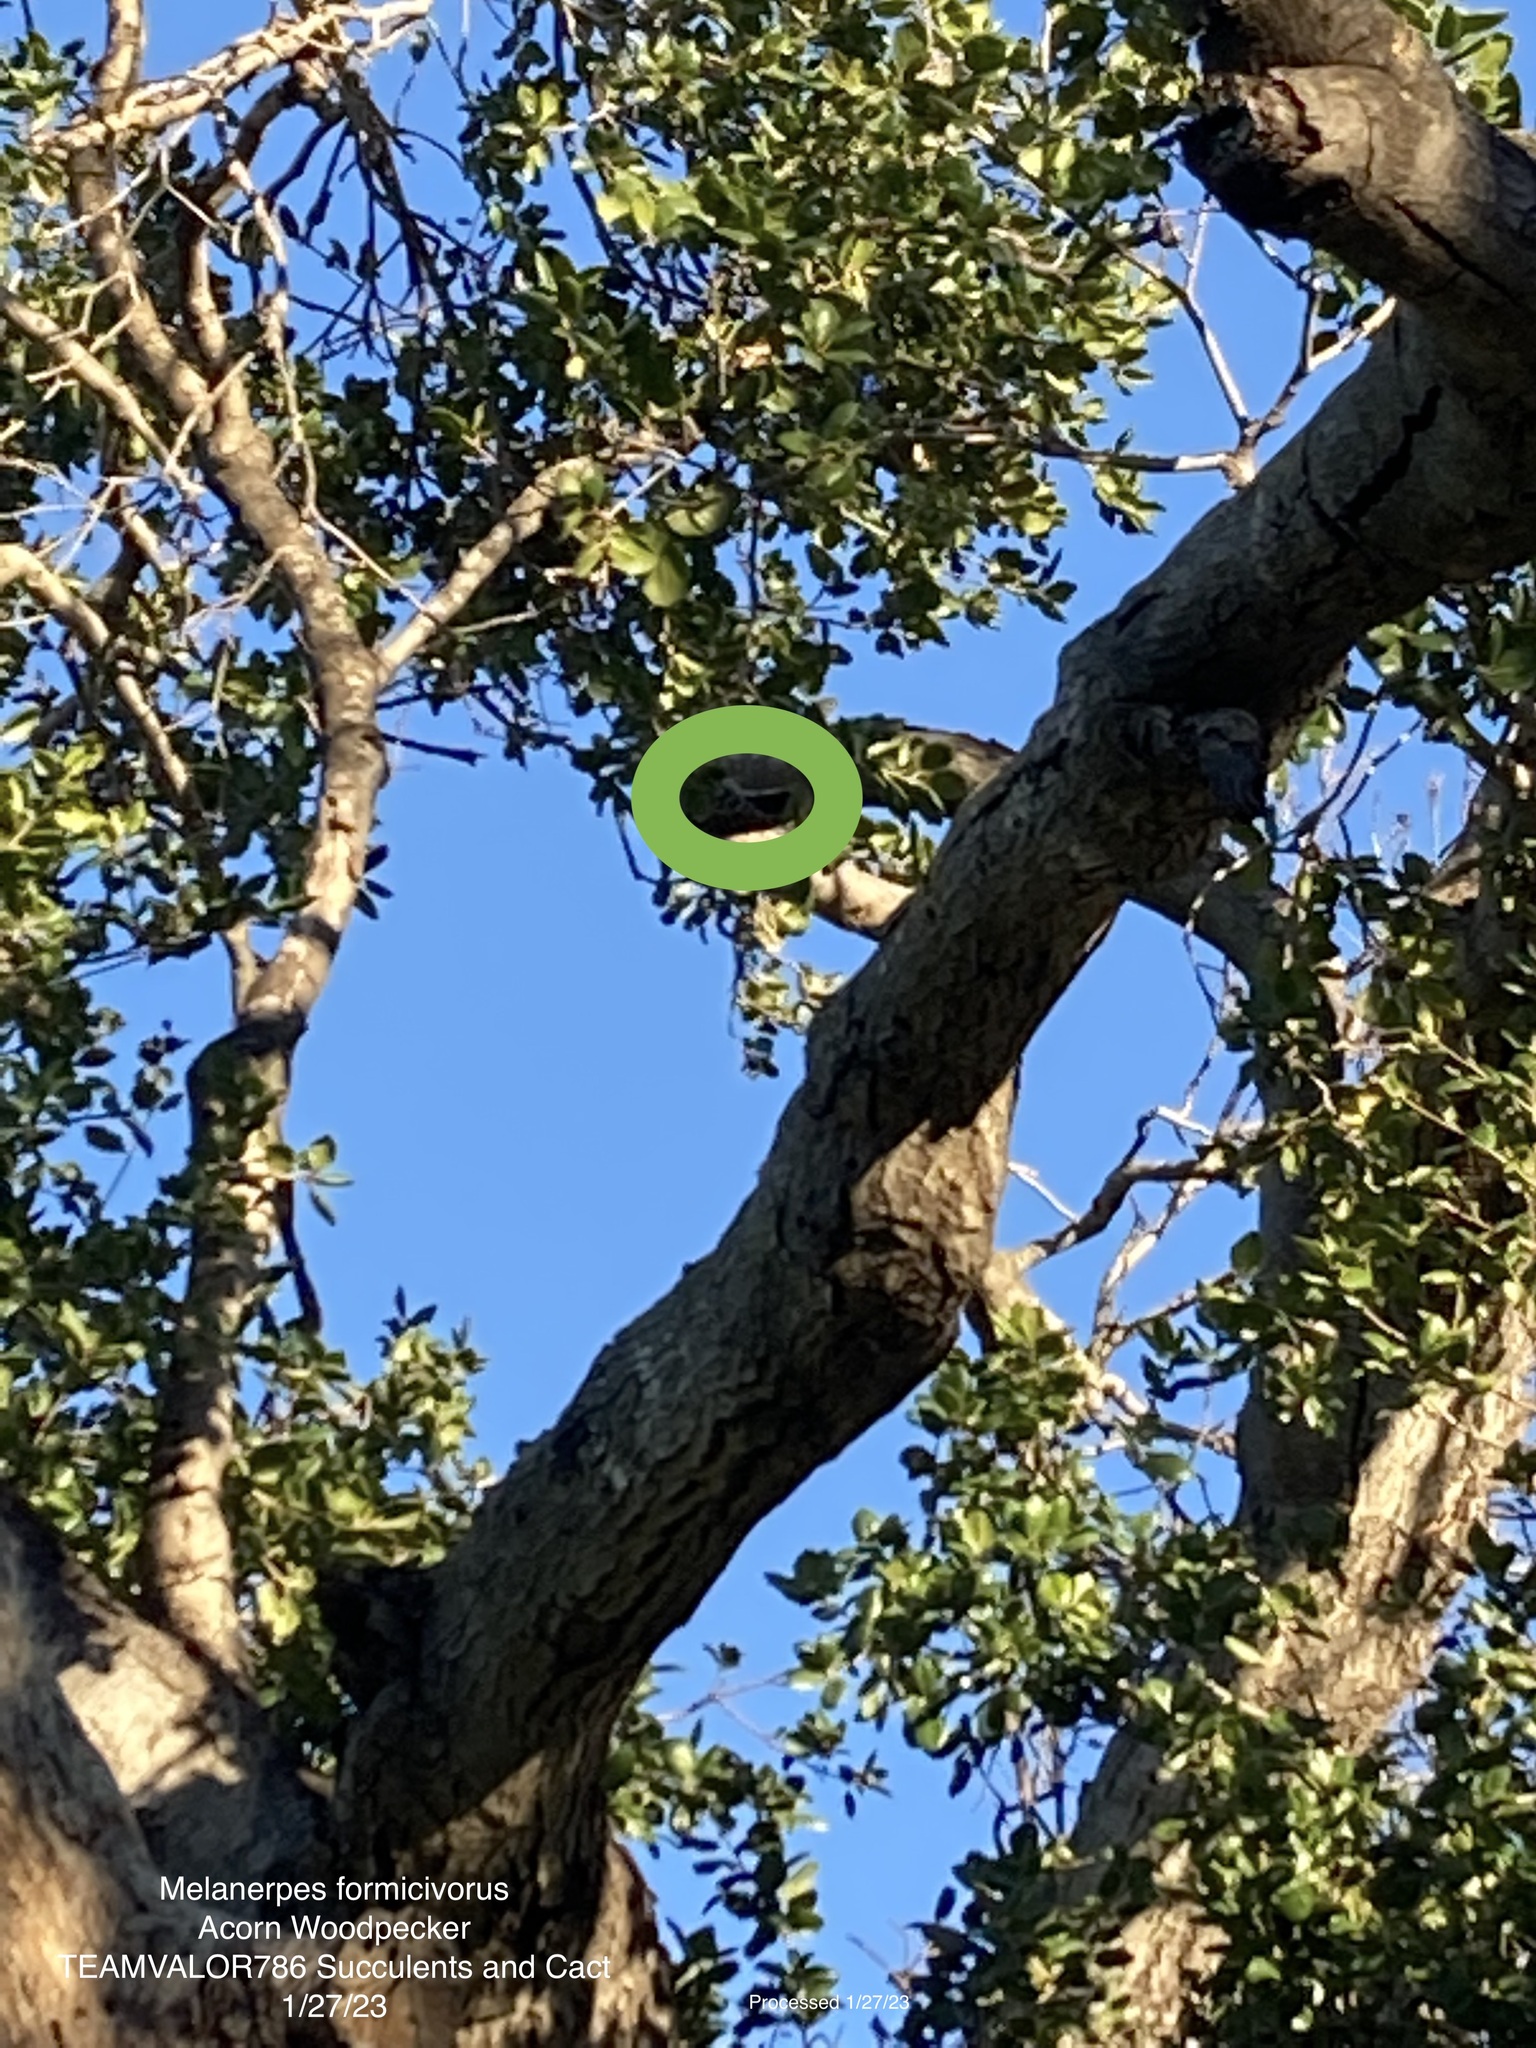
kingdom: Animalia
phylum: Chordata
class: Aves
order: Piciformes
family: Picidae
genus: Dryobates
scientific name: Dryobates nuttallii
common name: Nuttall's woodpecker
